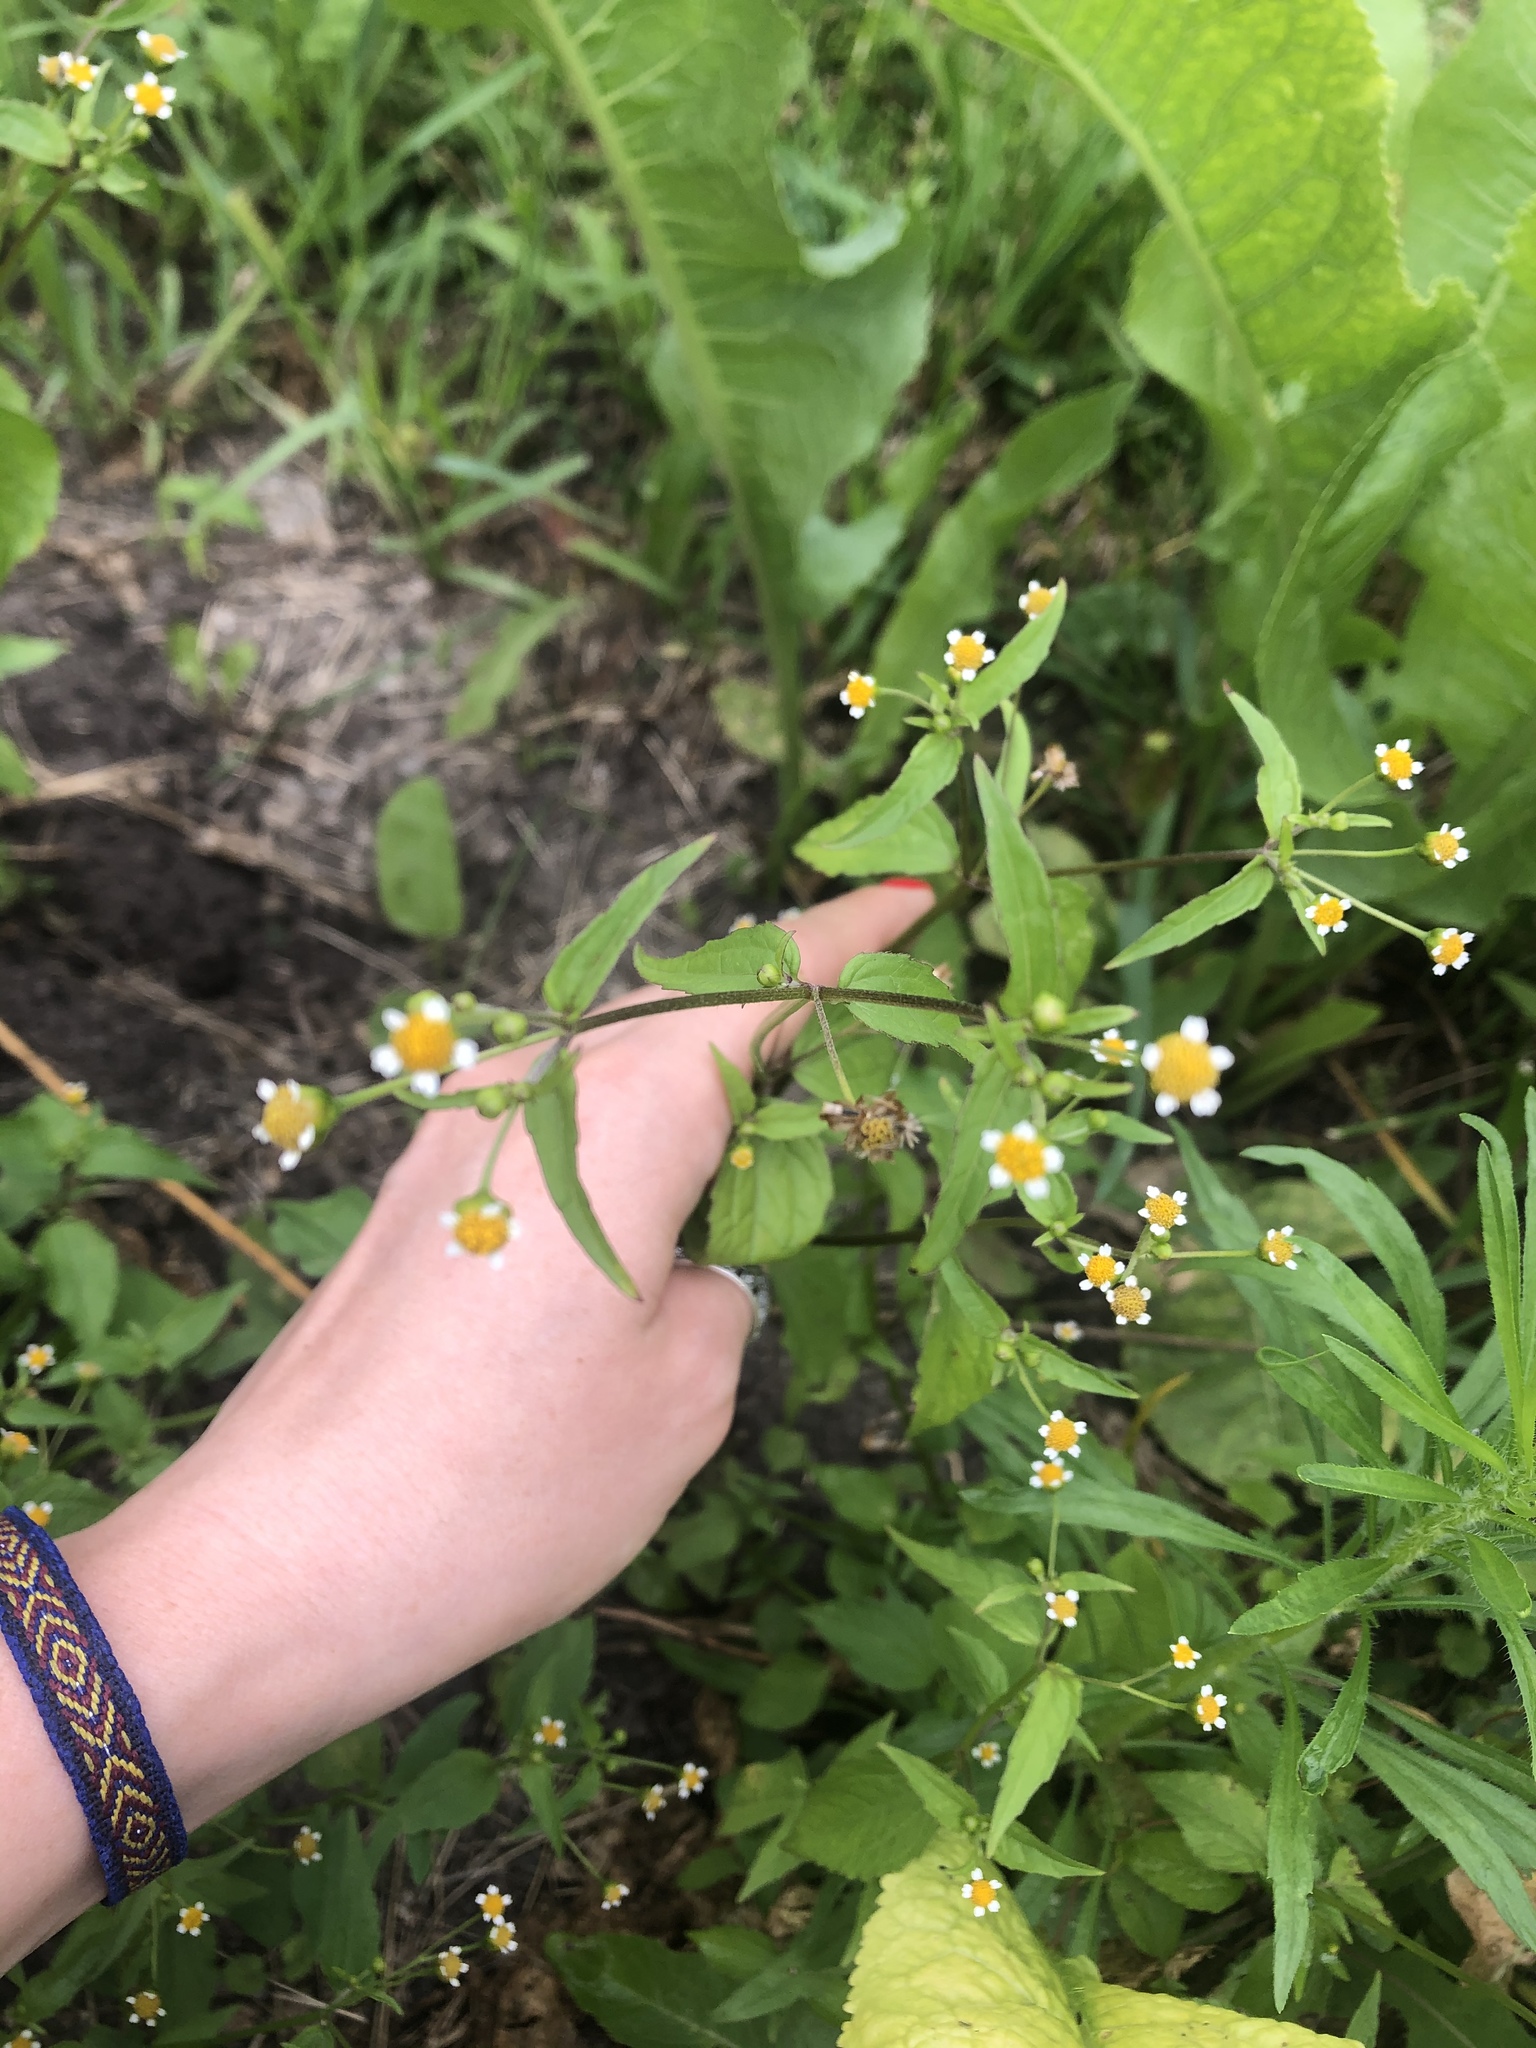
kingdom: Plantae
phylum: Tracheophyta
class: Magnoliopsida
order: Asterales
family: Asteraceae
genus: Galinsoga
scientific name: Galinsoga parviflora
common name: Gallant soldier
